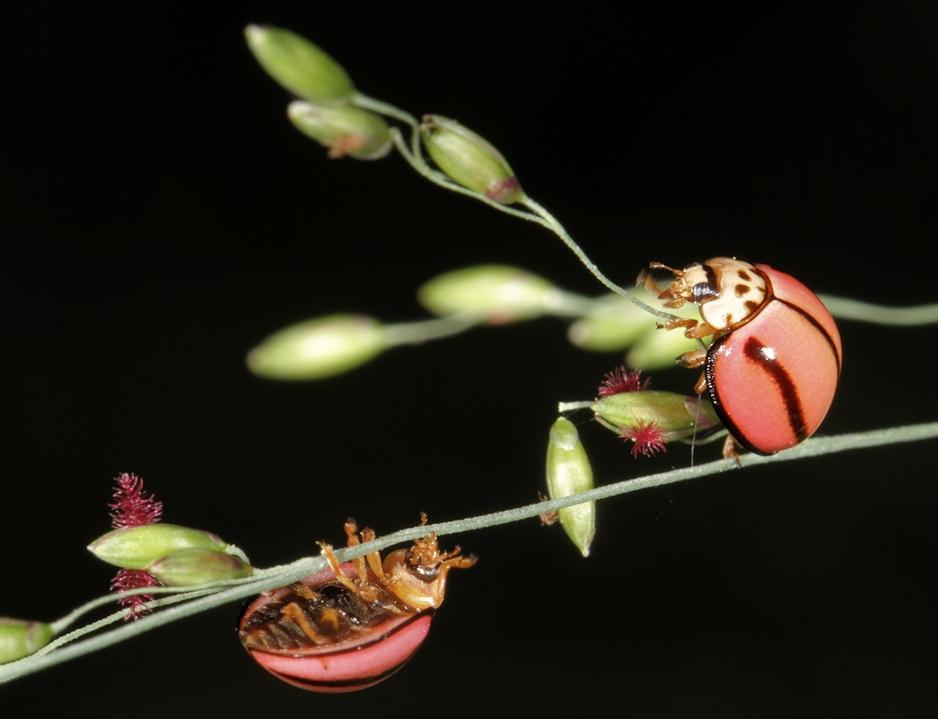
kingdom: Animalia
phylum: Arthropoda
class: Insecta
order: Coleoptera
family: Coccinellidae
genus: Declivitata
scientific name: Declivitata
